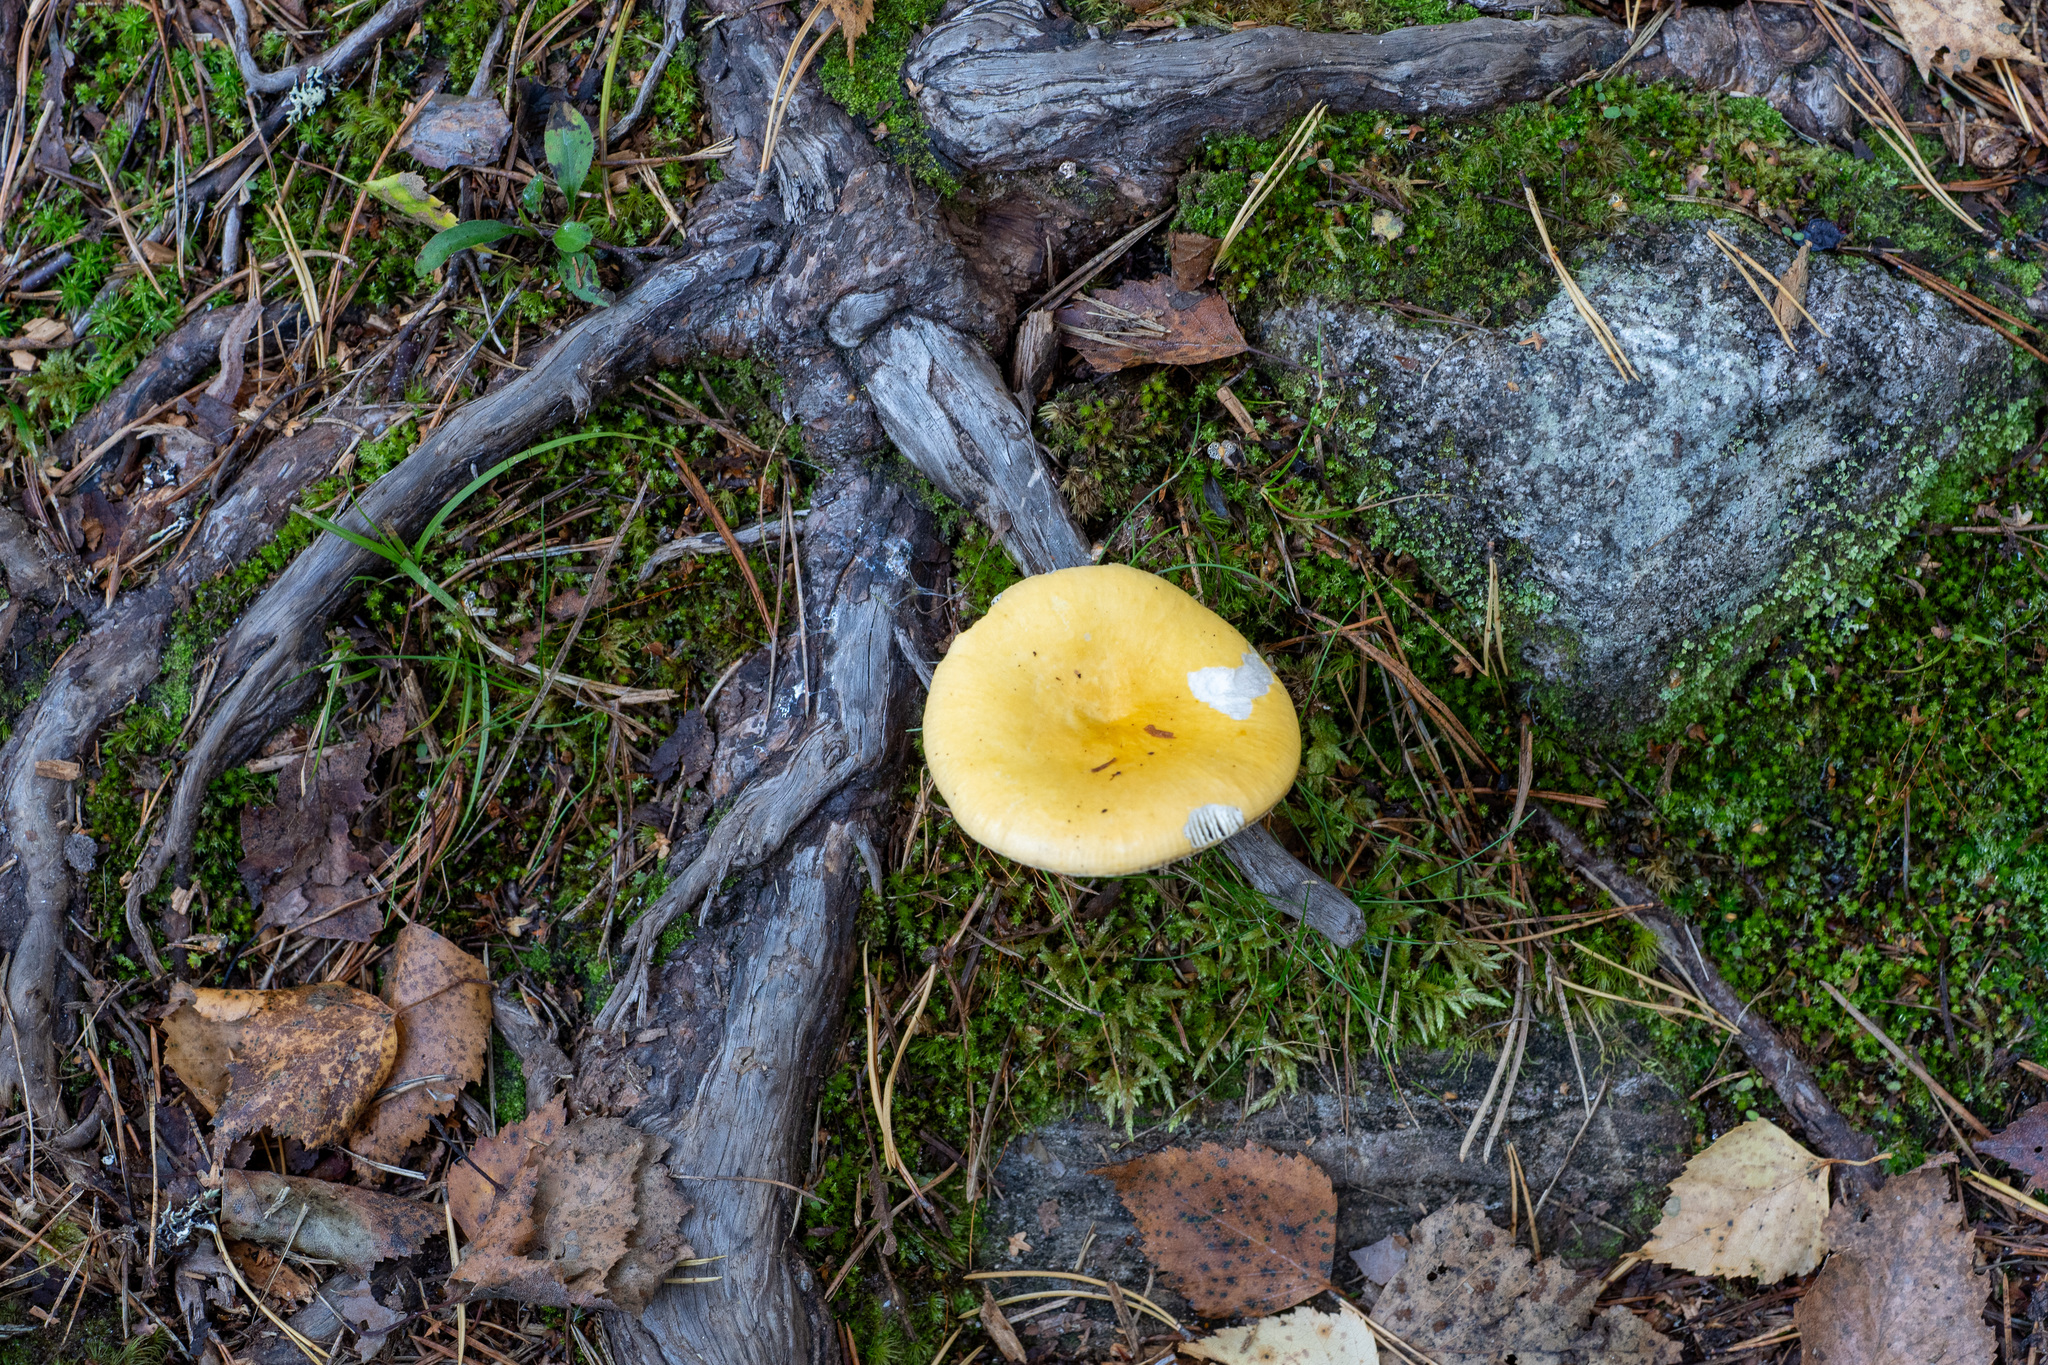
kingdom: Fungi
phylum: Basidiomycota
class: Agaricomycetes
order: Russulales
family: Russulaceae
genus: Russula
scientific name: Russula claroflava
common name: The yellow swamp brittlegill
